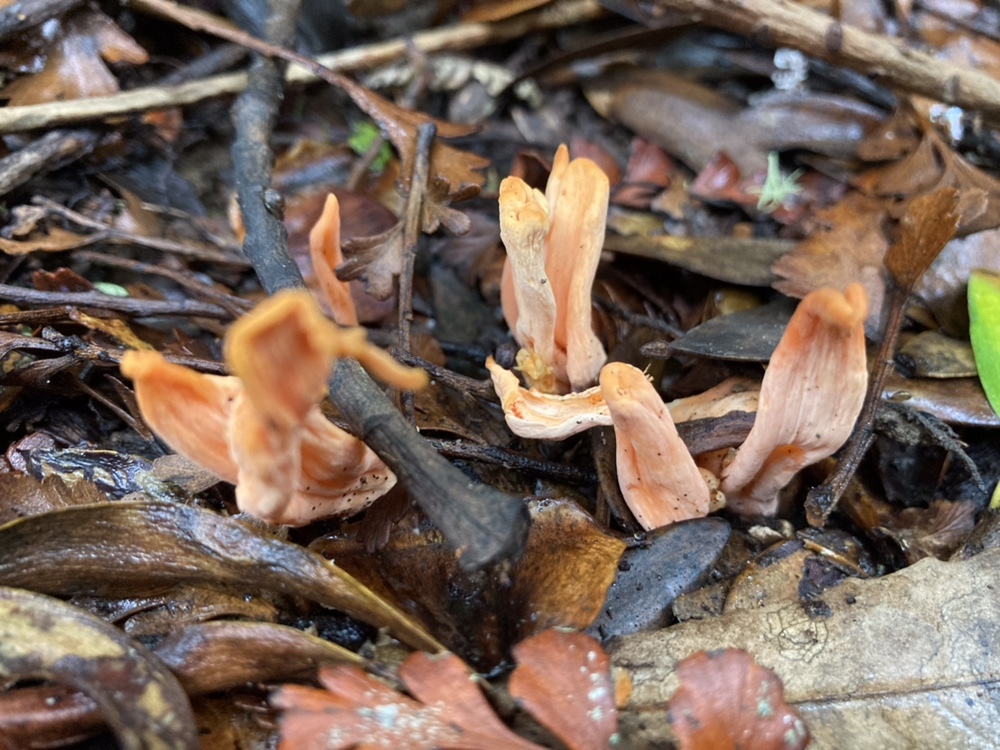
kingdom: Fungi
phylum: Basidiomycota
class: Agaricomycetes
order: Agaricales
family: Clavariaceae
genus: Clavulinopsis
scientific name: Clavulinopsis sulcata
